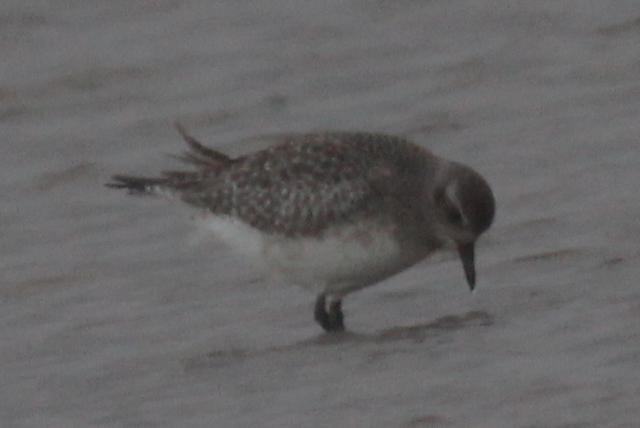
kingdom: Animalia
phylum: Chordata
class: Aves
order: Charadriiformes
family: Charadriidae
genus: Pluvialis
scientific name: Pluvialis squatarola
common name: Grey plover
